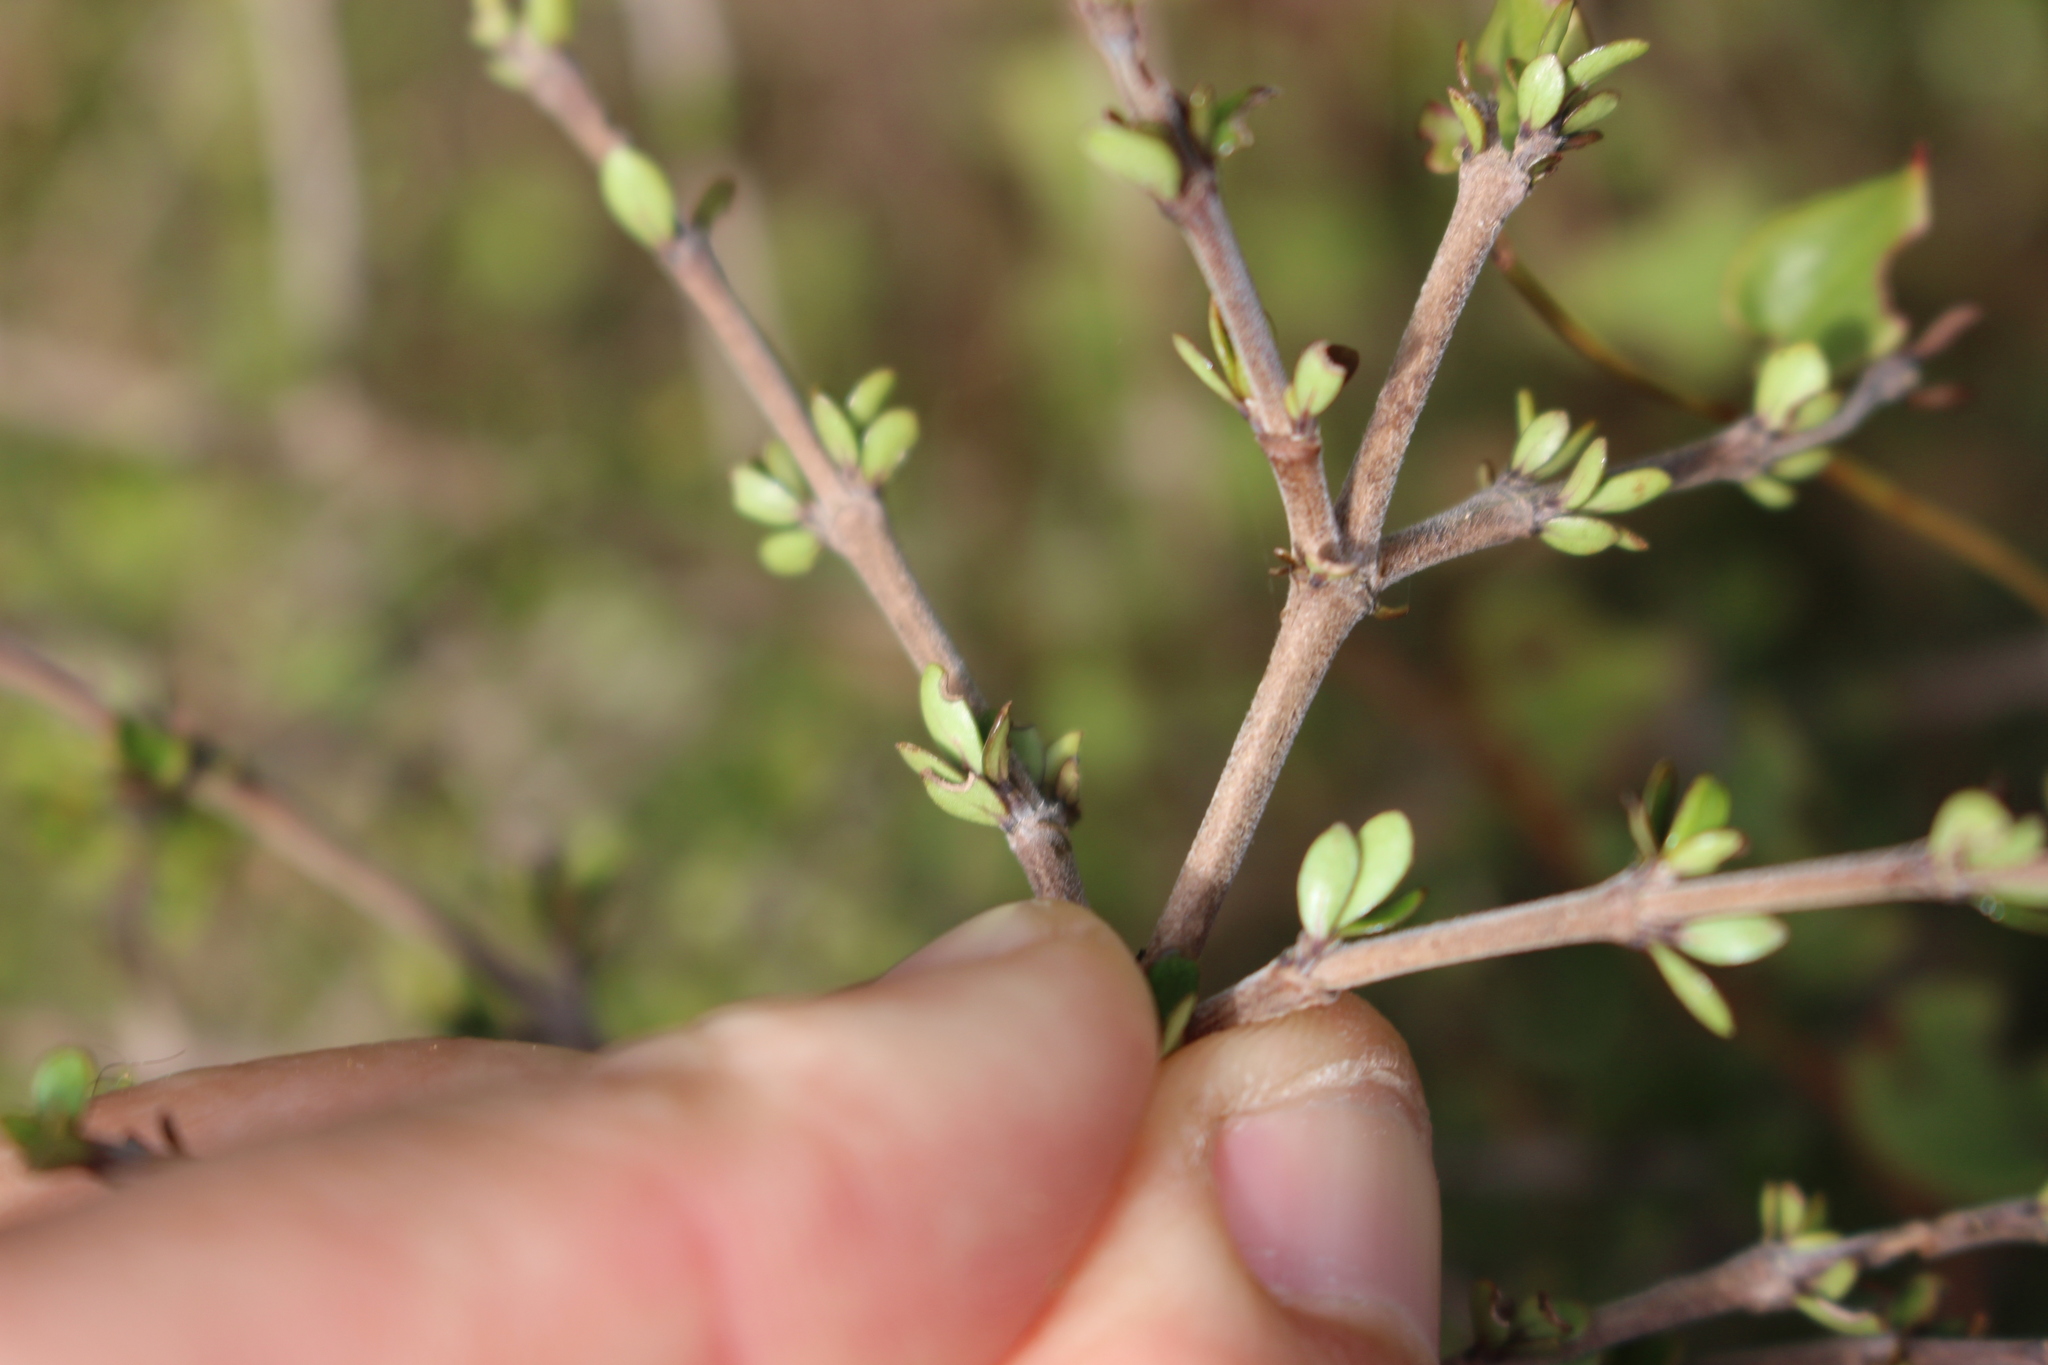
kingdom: Plantae
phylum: Tracheophyta
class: Magnoliopsida
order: Gentianales
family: Rubiaceae
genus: Coprosma
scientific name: Coprosma dumosa
